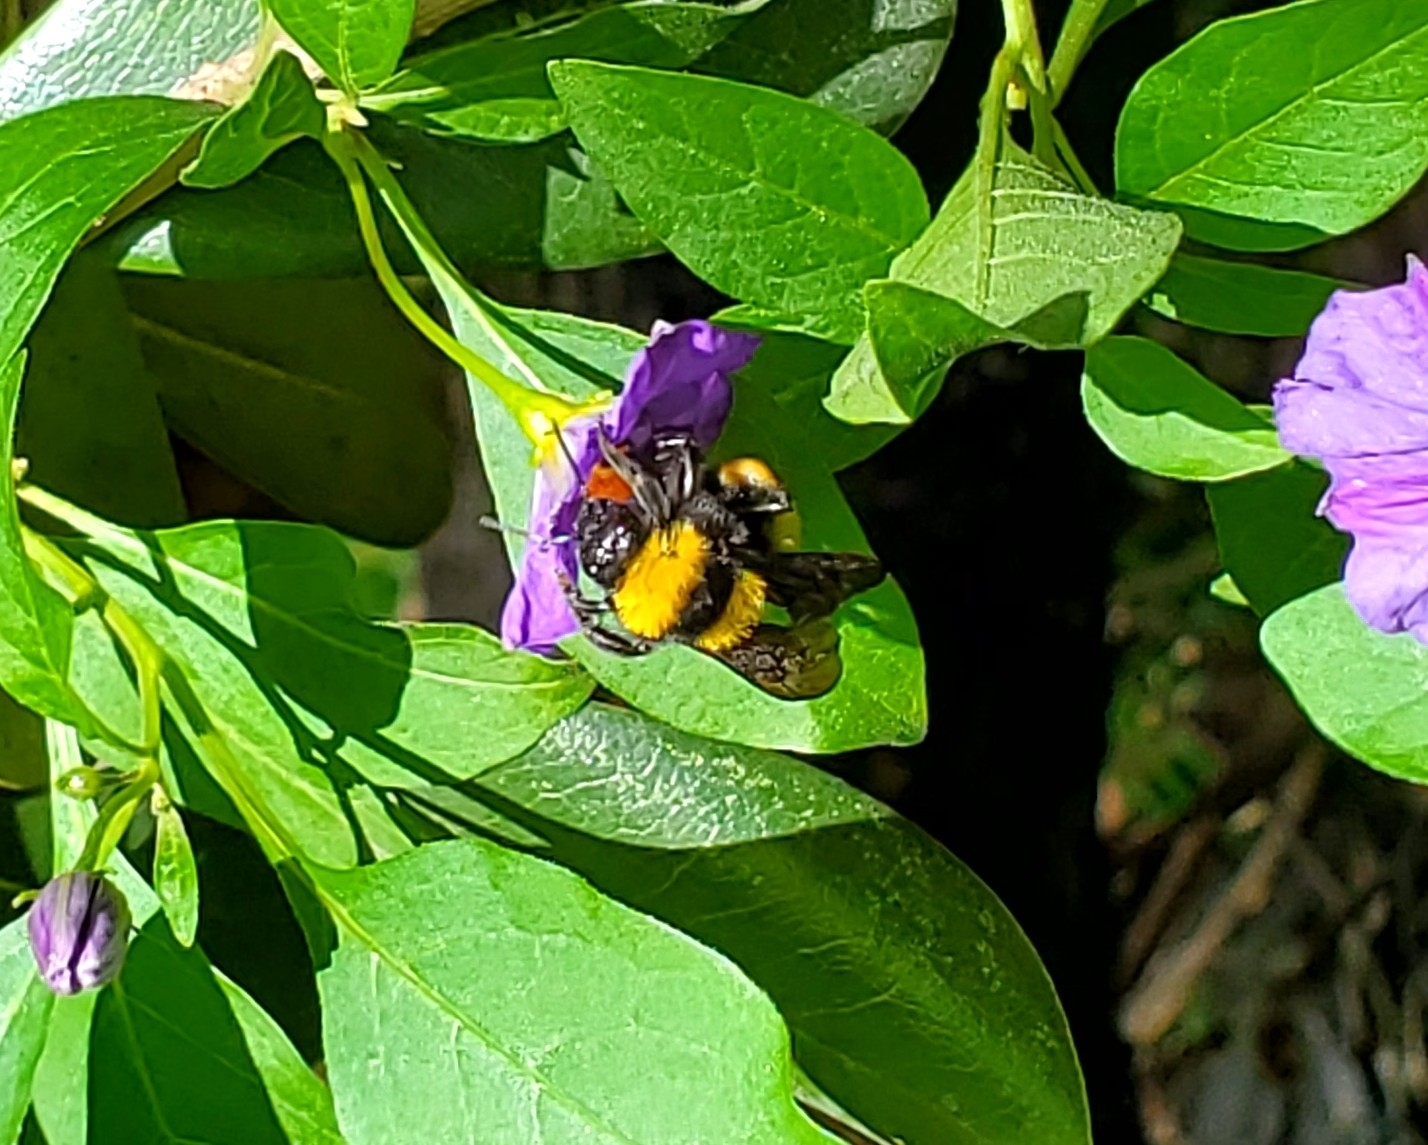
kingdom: Animalia
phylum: Arthropoda
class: Insecta
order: Hymenoptera
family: Apidae
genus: Bombus
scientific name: Bombus sonorus
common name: Sonoran bumble bee
